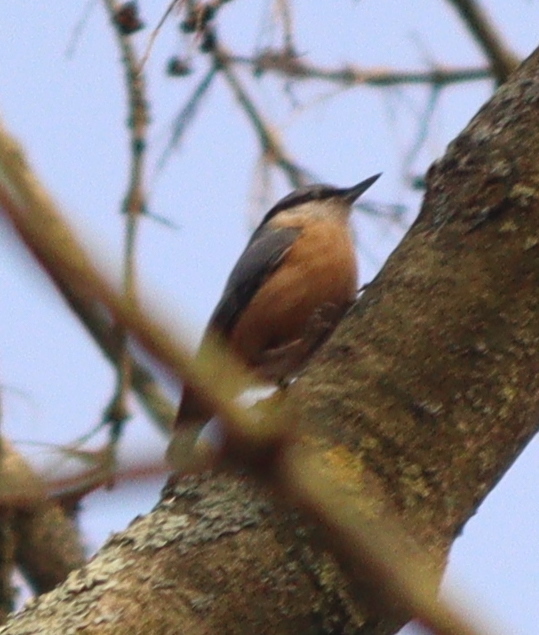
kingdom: Animalia
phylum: Chordata
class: Aves
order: Passeriformes
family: Sittidae
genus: Sitta
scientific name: Sitta europaea
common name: Eurasian nuthatch
